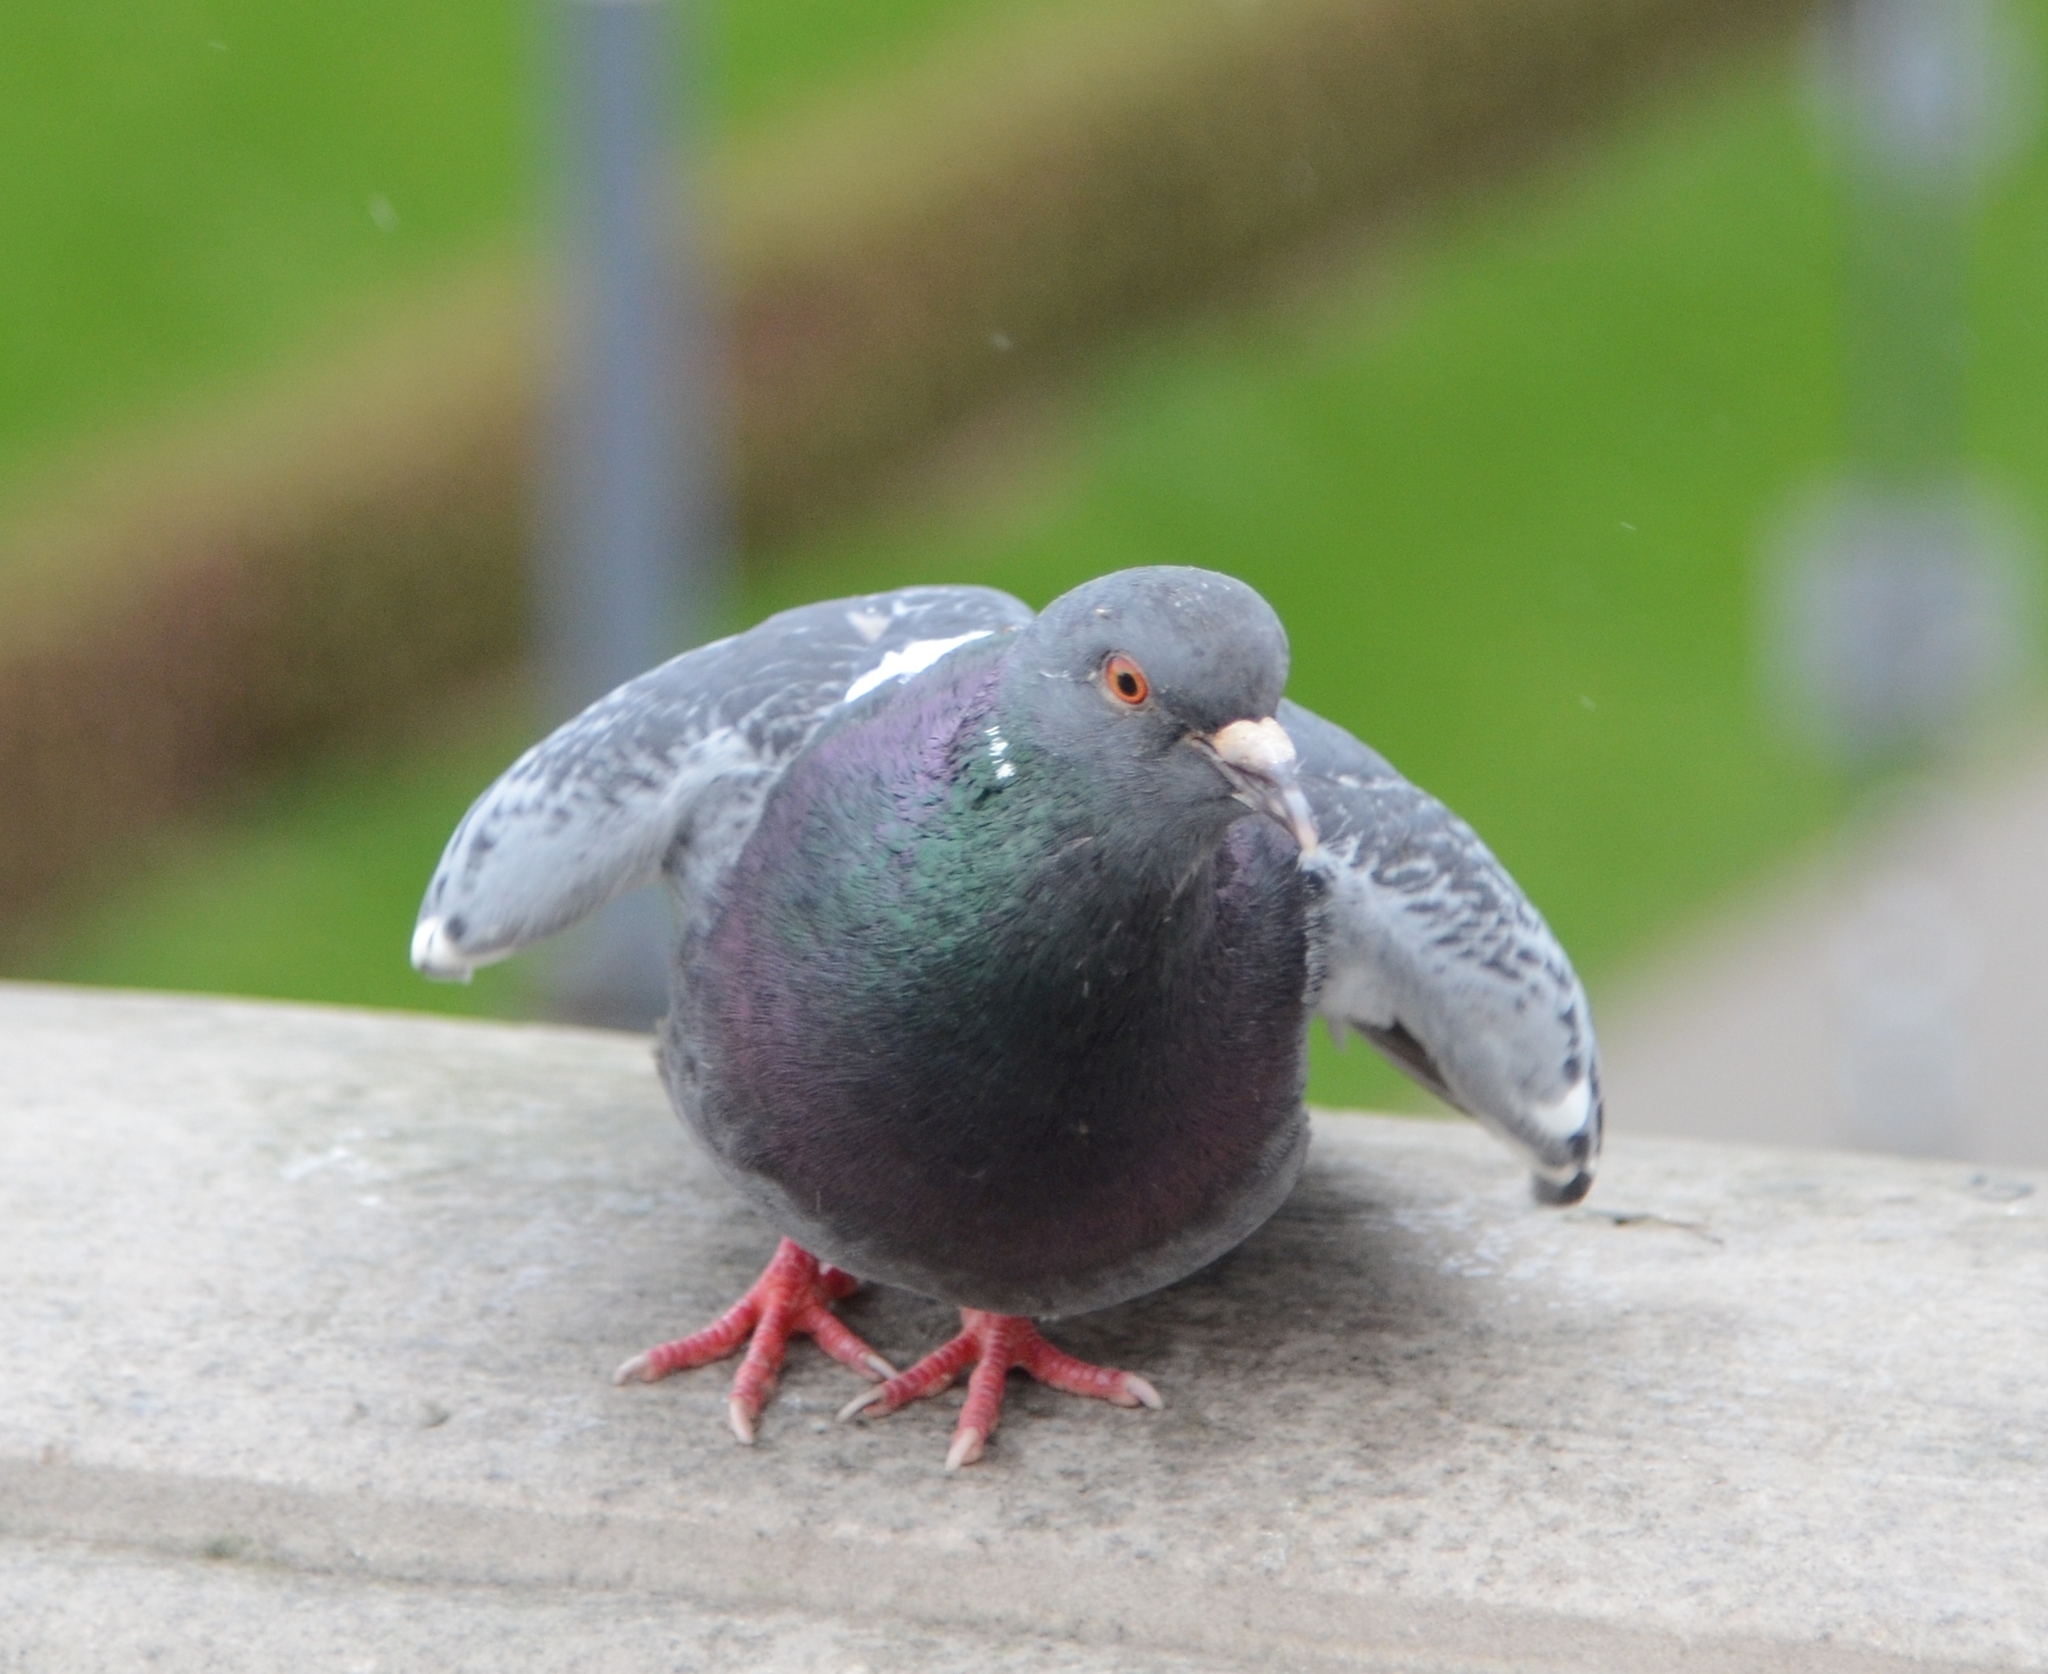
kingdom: Animalia
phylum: Chordata
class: Aves
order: Columbiformes
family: Columbidae
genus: Columba
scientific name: Columba livia
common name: Rock pigeon
